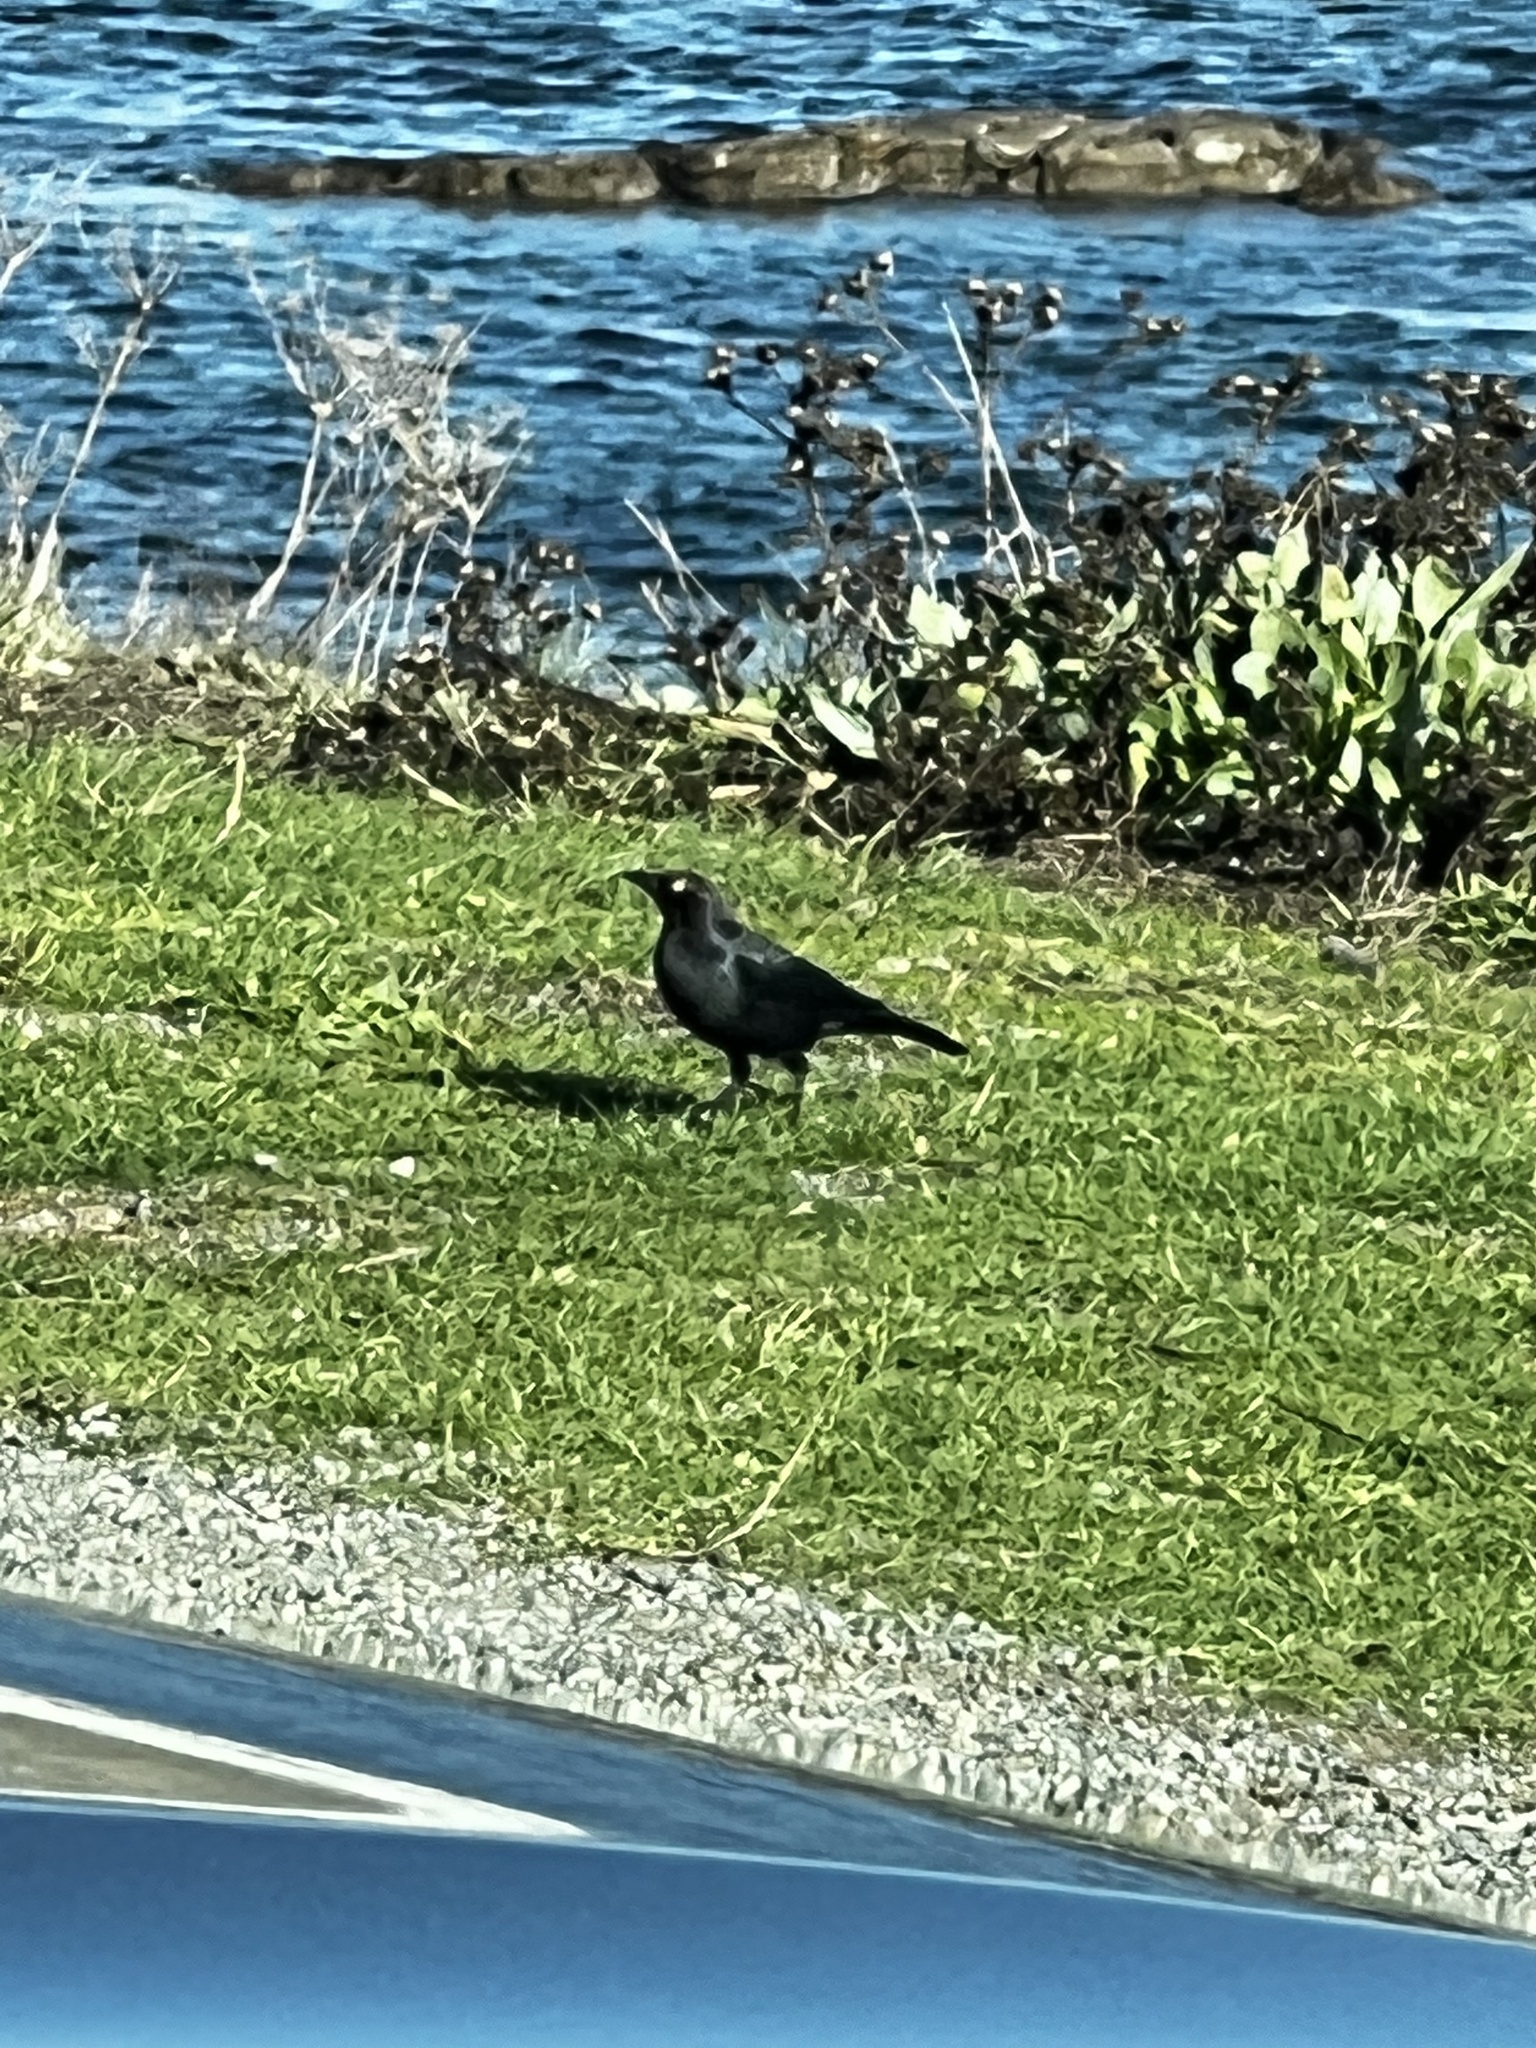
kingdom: Animalia
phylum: Chordata
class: Aves
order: Passeriformes
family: Icteridae
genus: Euphagus
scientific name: Euphagus cyanocephalus
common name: Brewer's blackbird
